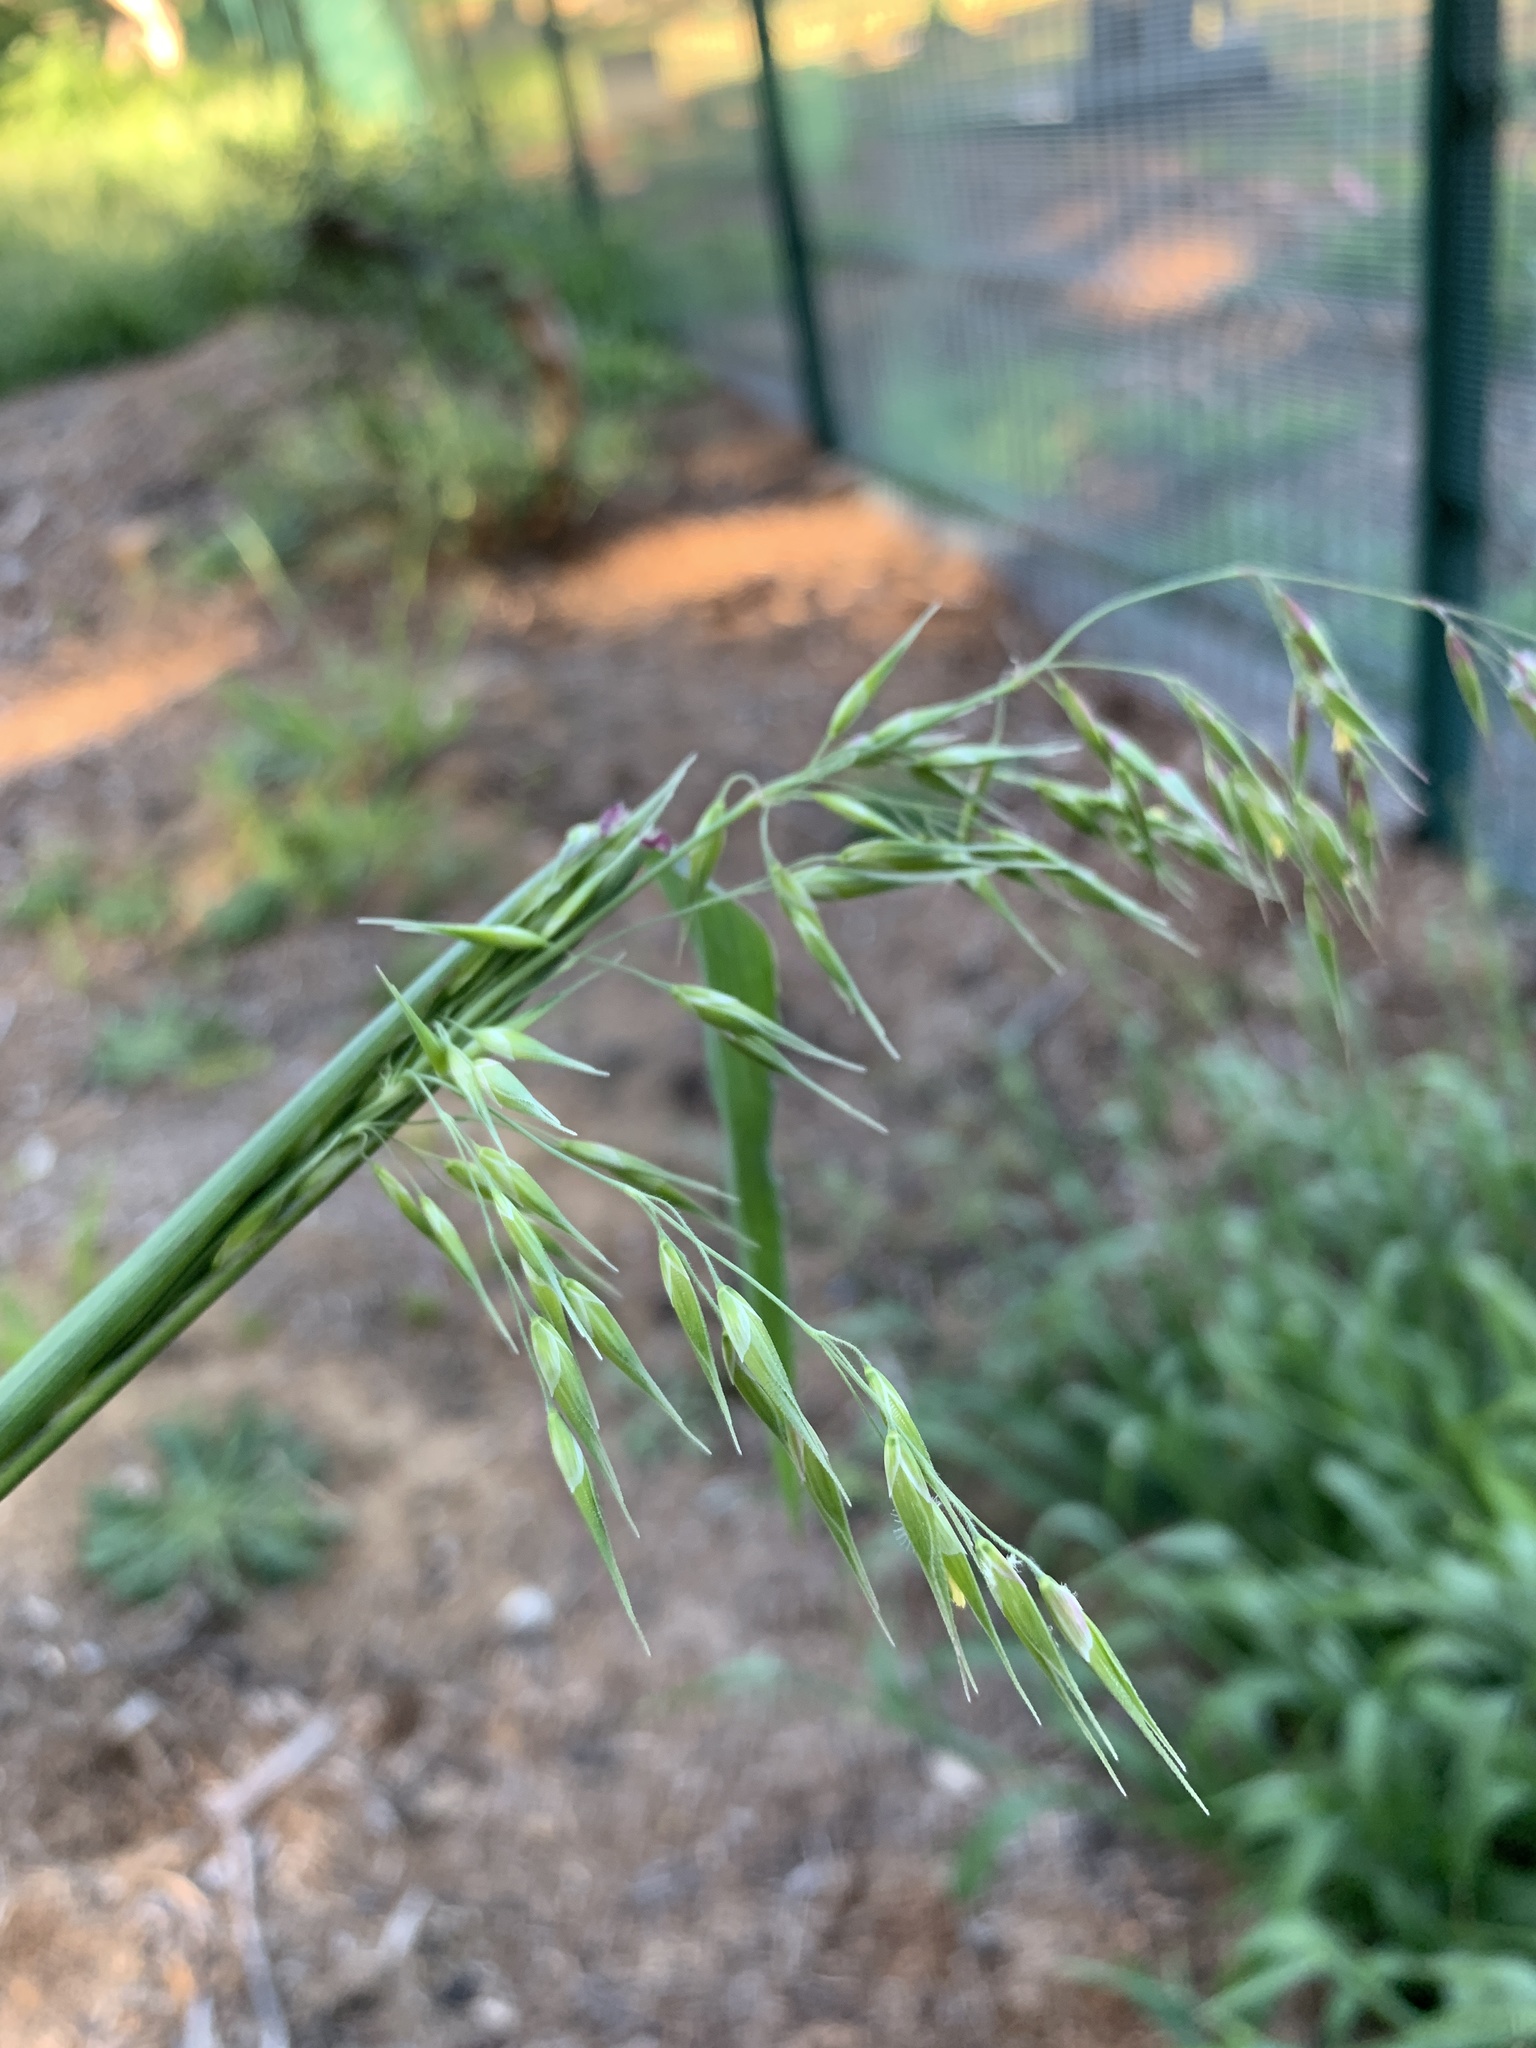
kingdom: Plantae
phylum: Tracheophyta
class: Liliopsida
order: Poales
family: Poaceae
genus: Ehrharta
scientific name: Ehrharta longiflora
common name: Longflowered veldtgrass
